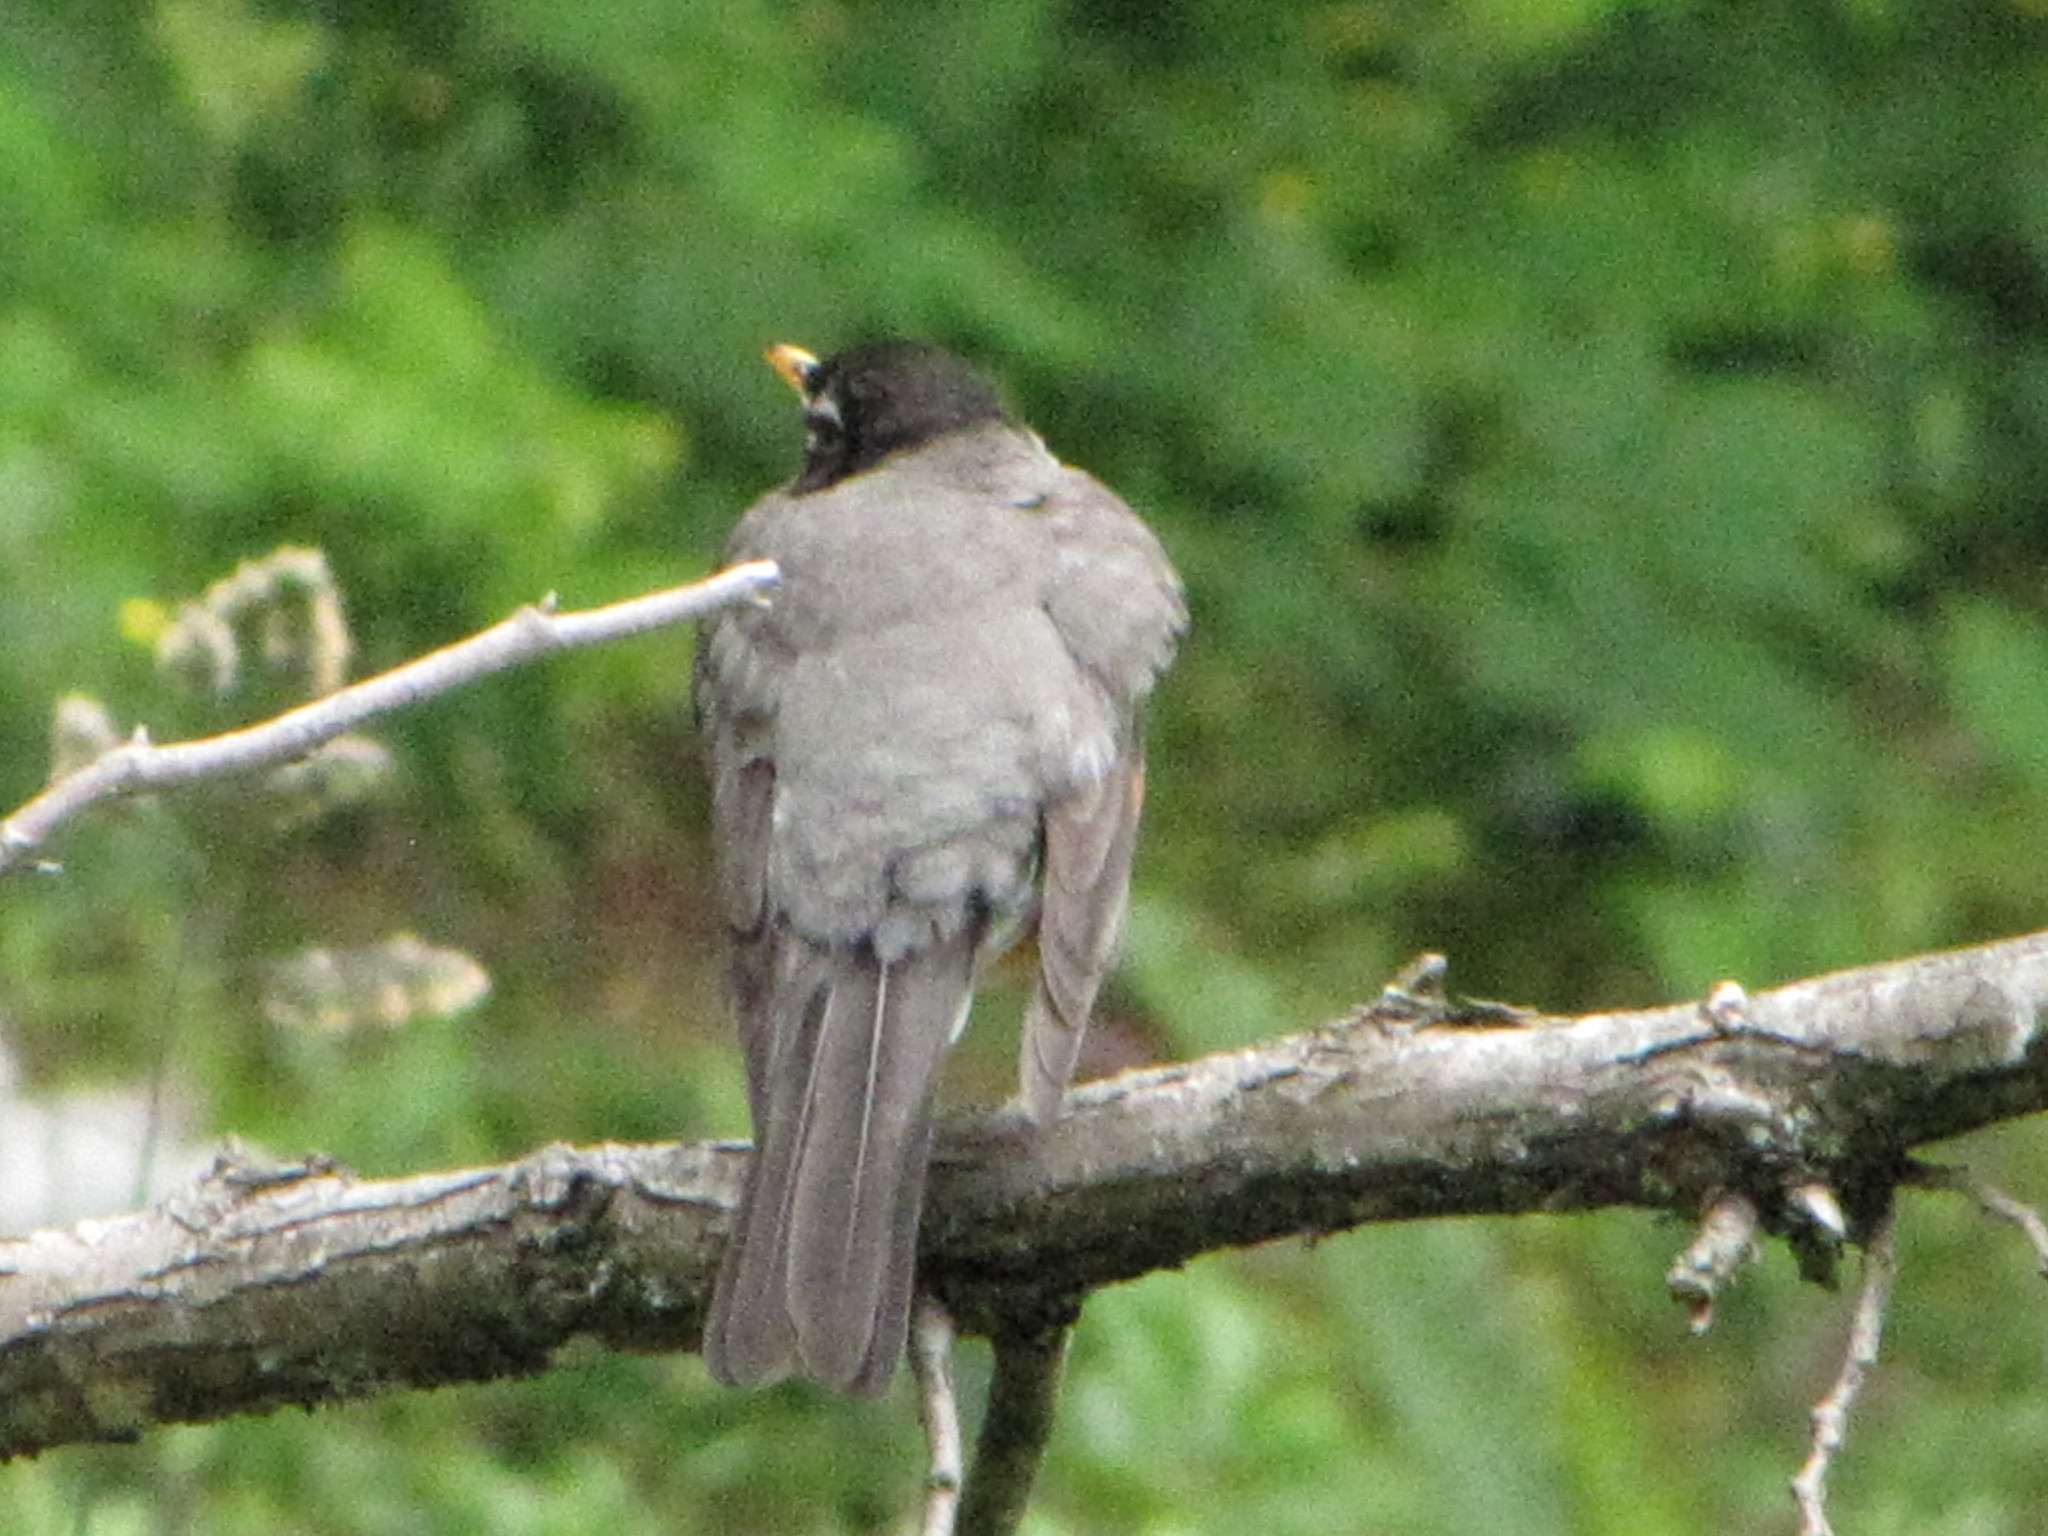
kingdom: Animalia
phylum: Chordata
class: Aves
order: Passeriformes
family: Turdidae
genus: Turdus
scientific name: Turdus migratorius
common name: American robin
